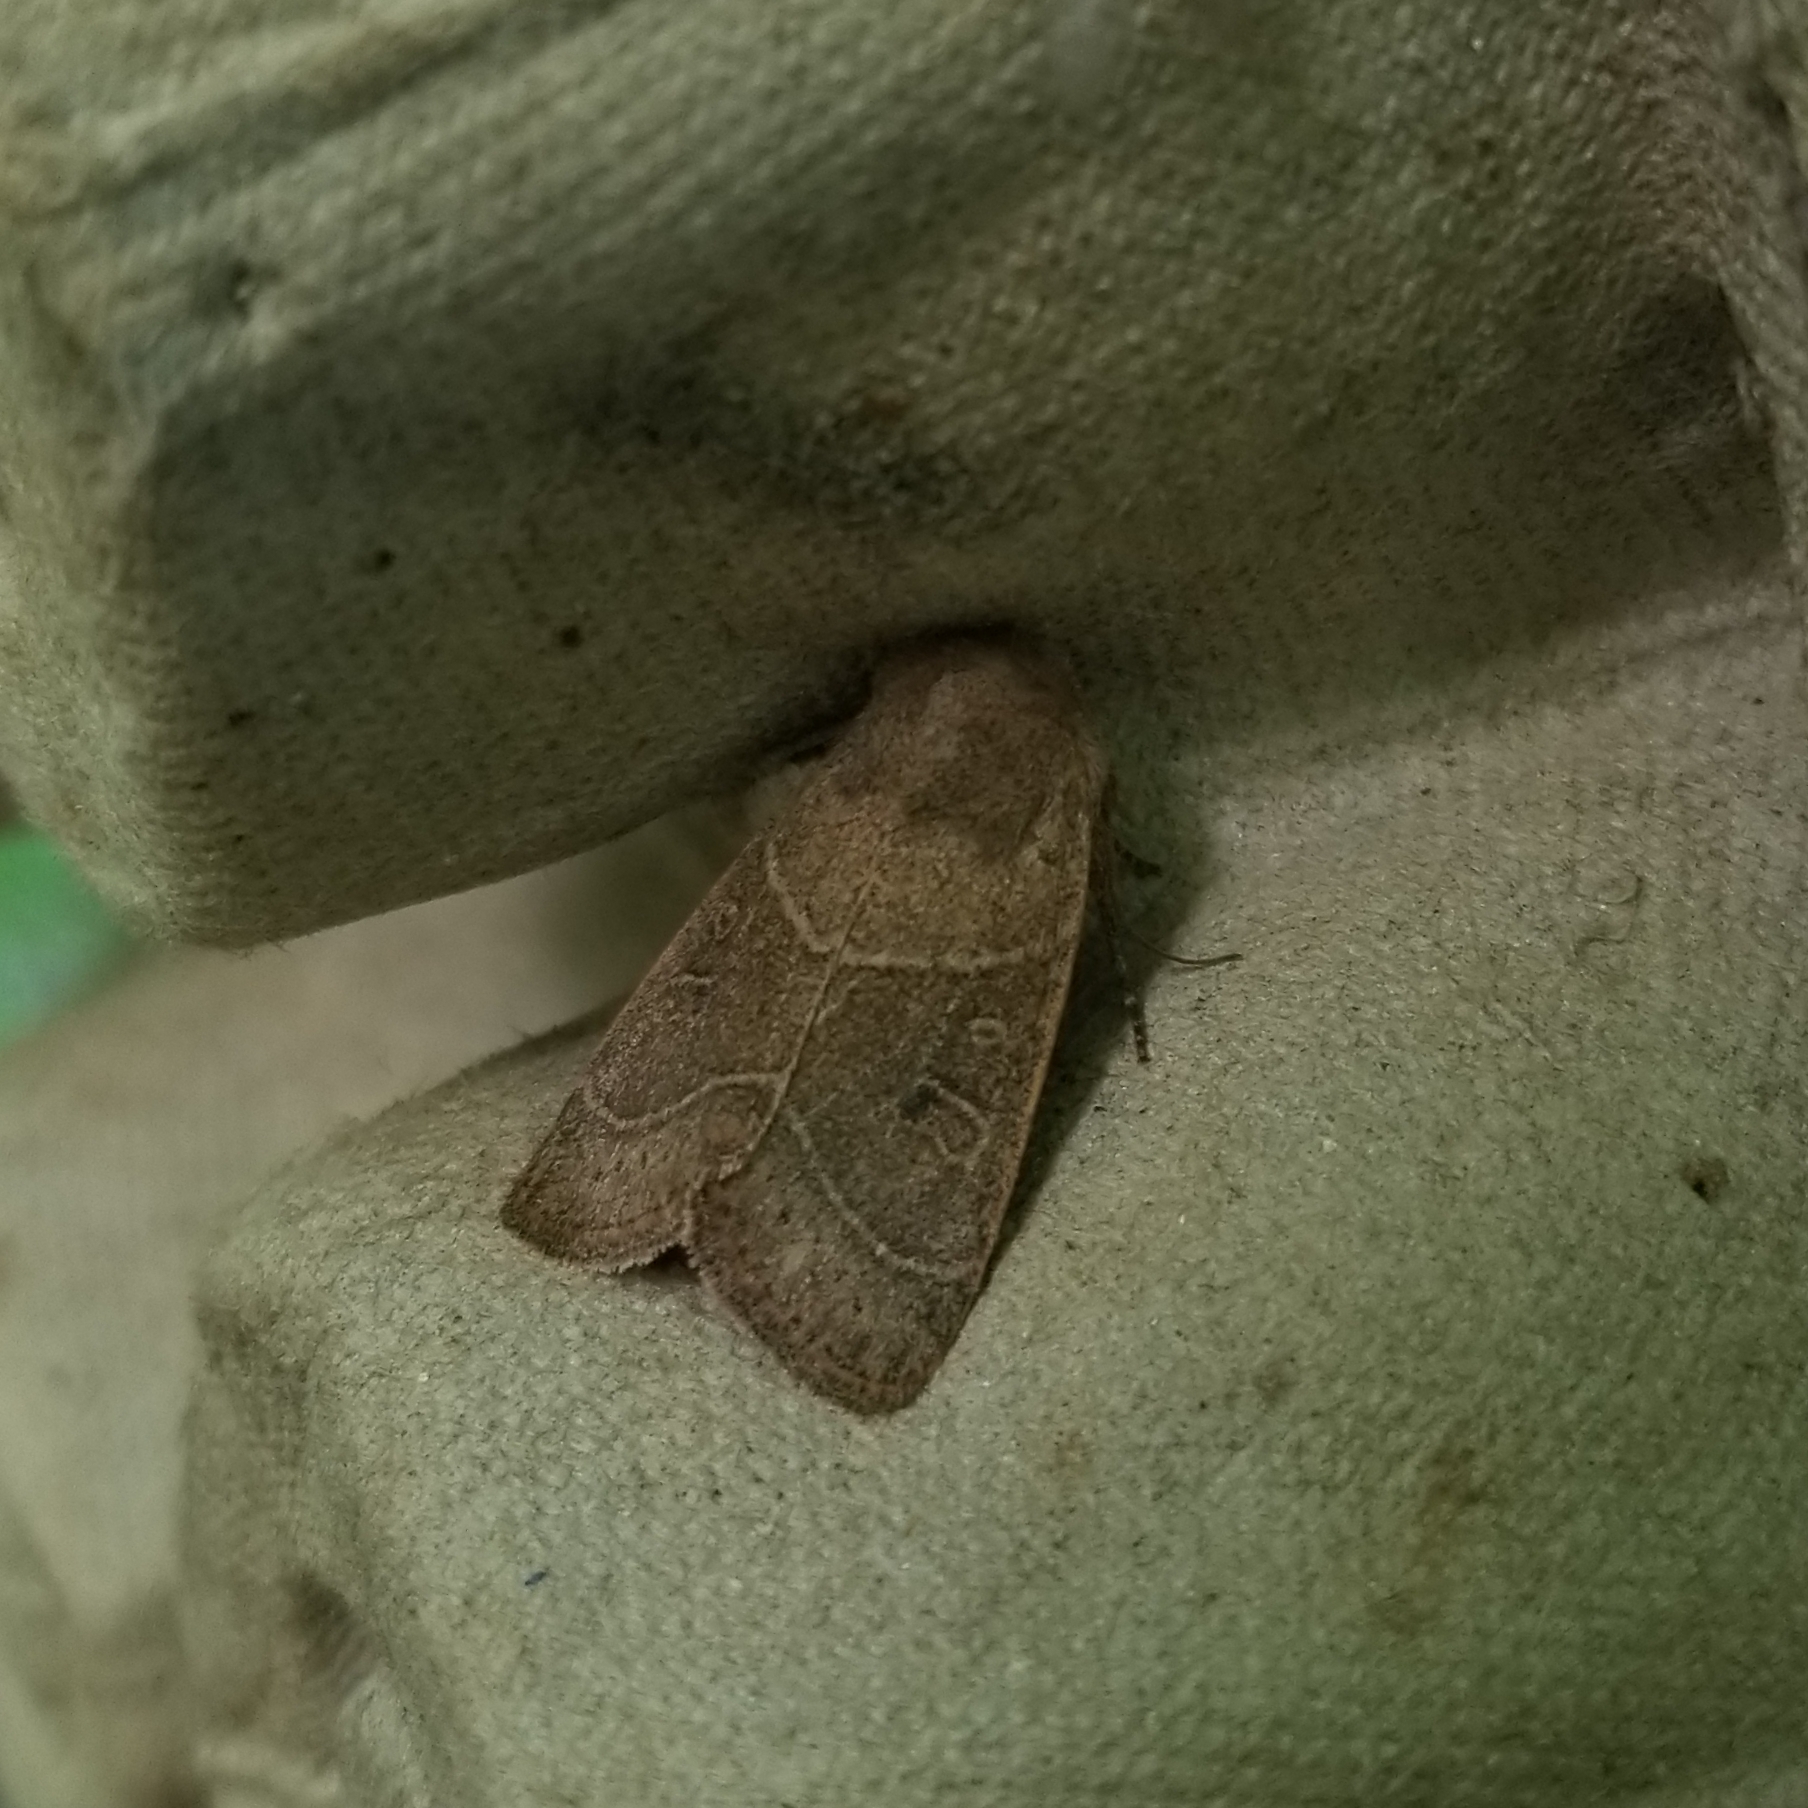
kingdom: Animalia
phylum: Arthropoda
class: Insecta
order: Lepidoptera
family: Noctuidae
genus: Ulolonche
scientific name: Ulolonche culea
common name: Sheathed quaker
